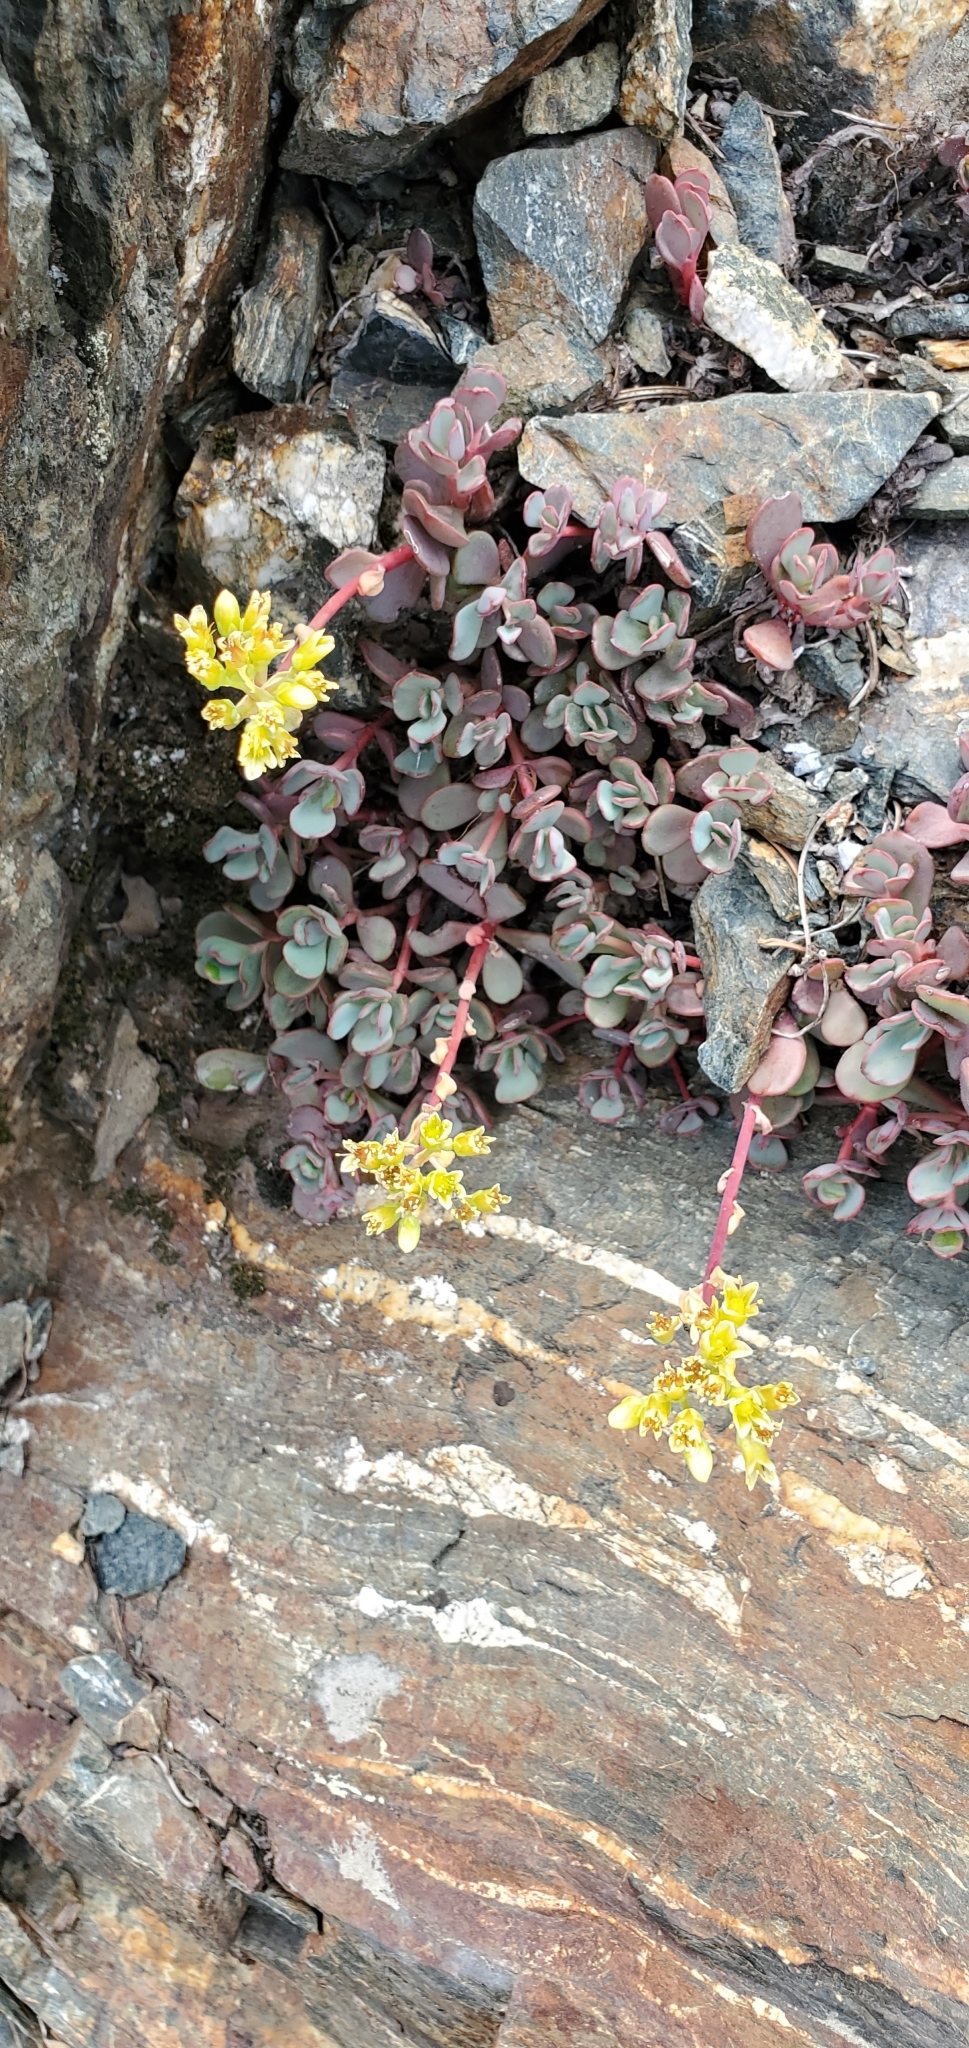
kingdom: Plantae
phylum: Tracheophyta
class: Magnoliopsida
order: Saxifragales
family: Crassulaceae
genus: Sedum
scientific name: Sedum oregonense
